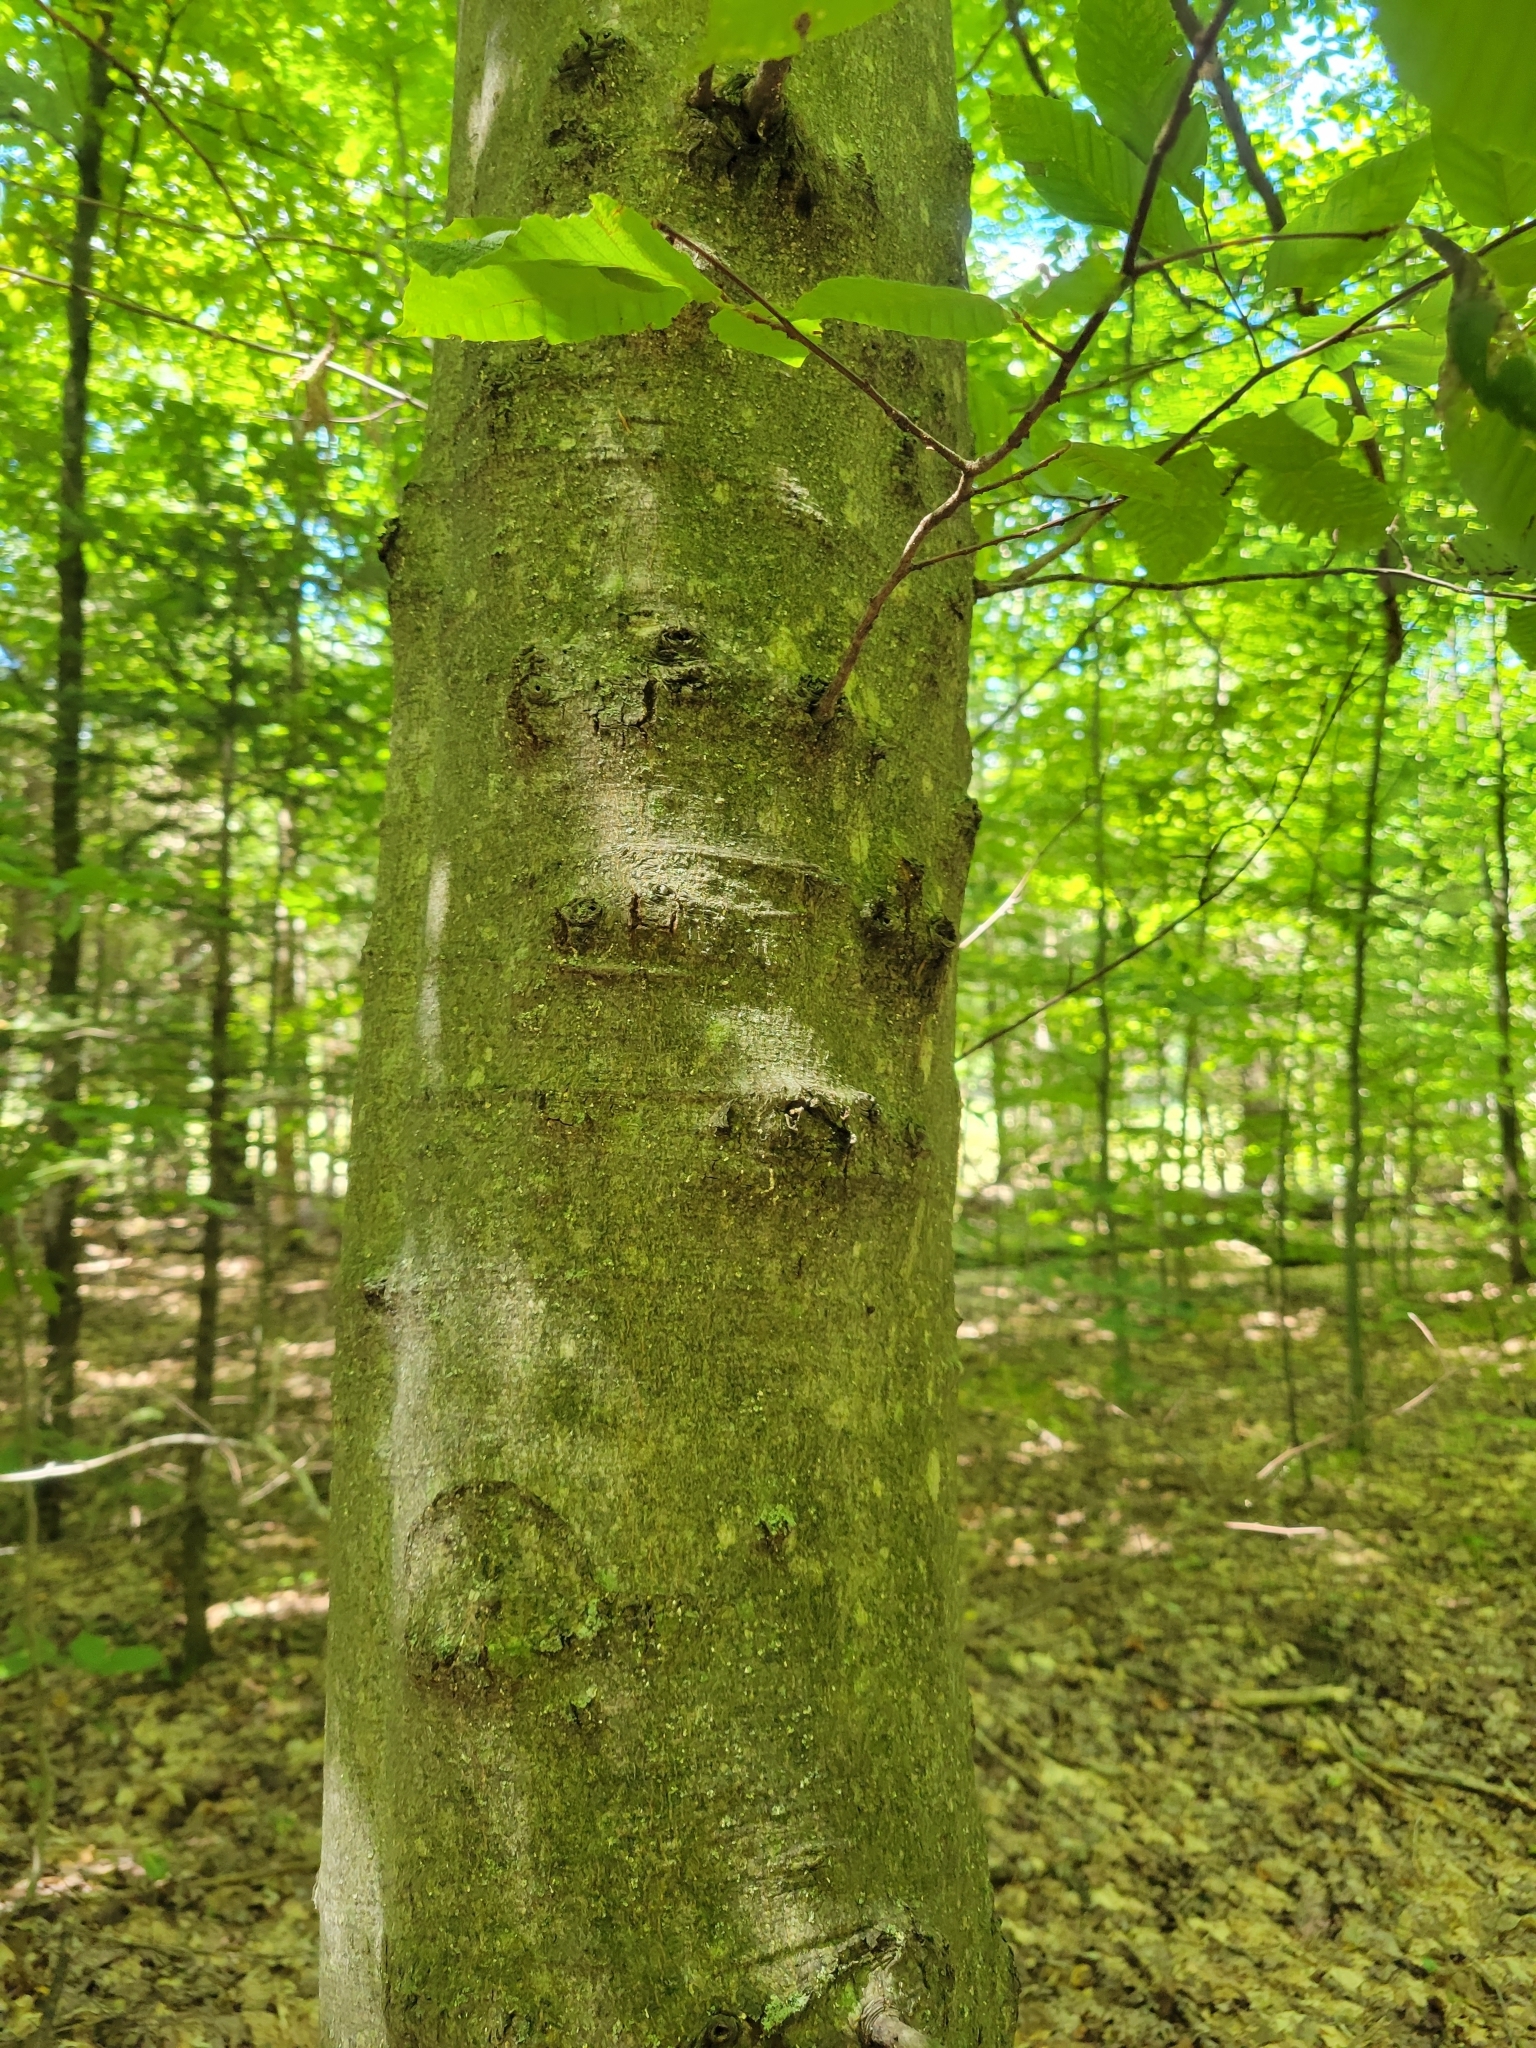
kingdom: Animalia
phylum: Arthropoda
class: Insecta
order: Hemiptera
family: Eriococcidae
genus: Cryptococcus
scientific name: Cryptococcus fagisuga
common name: Beech scale
